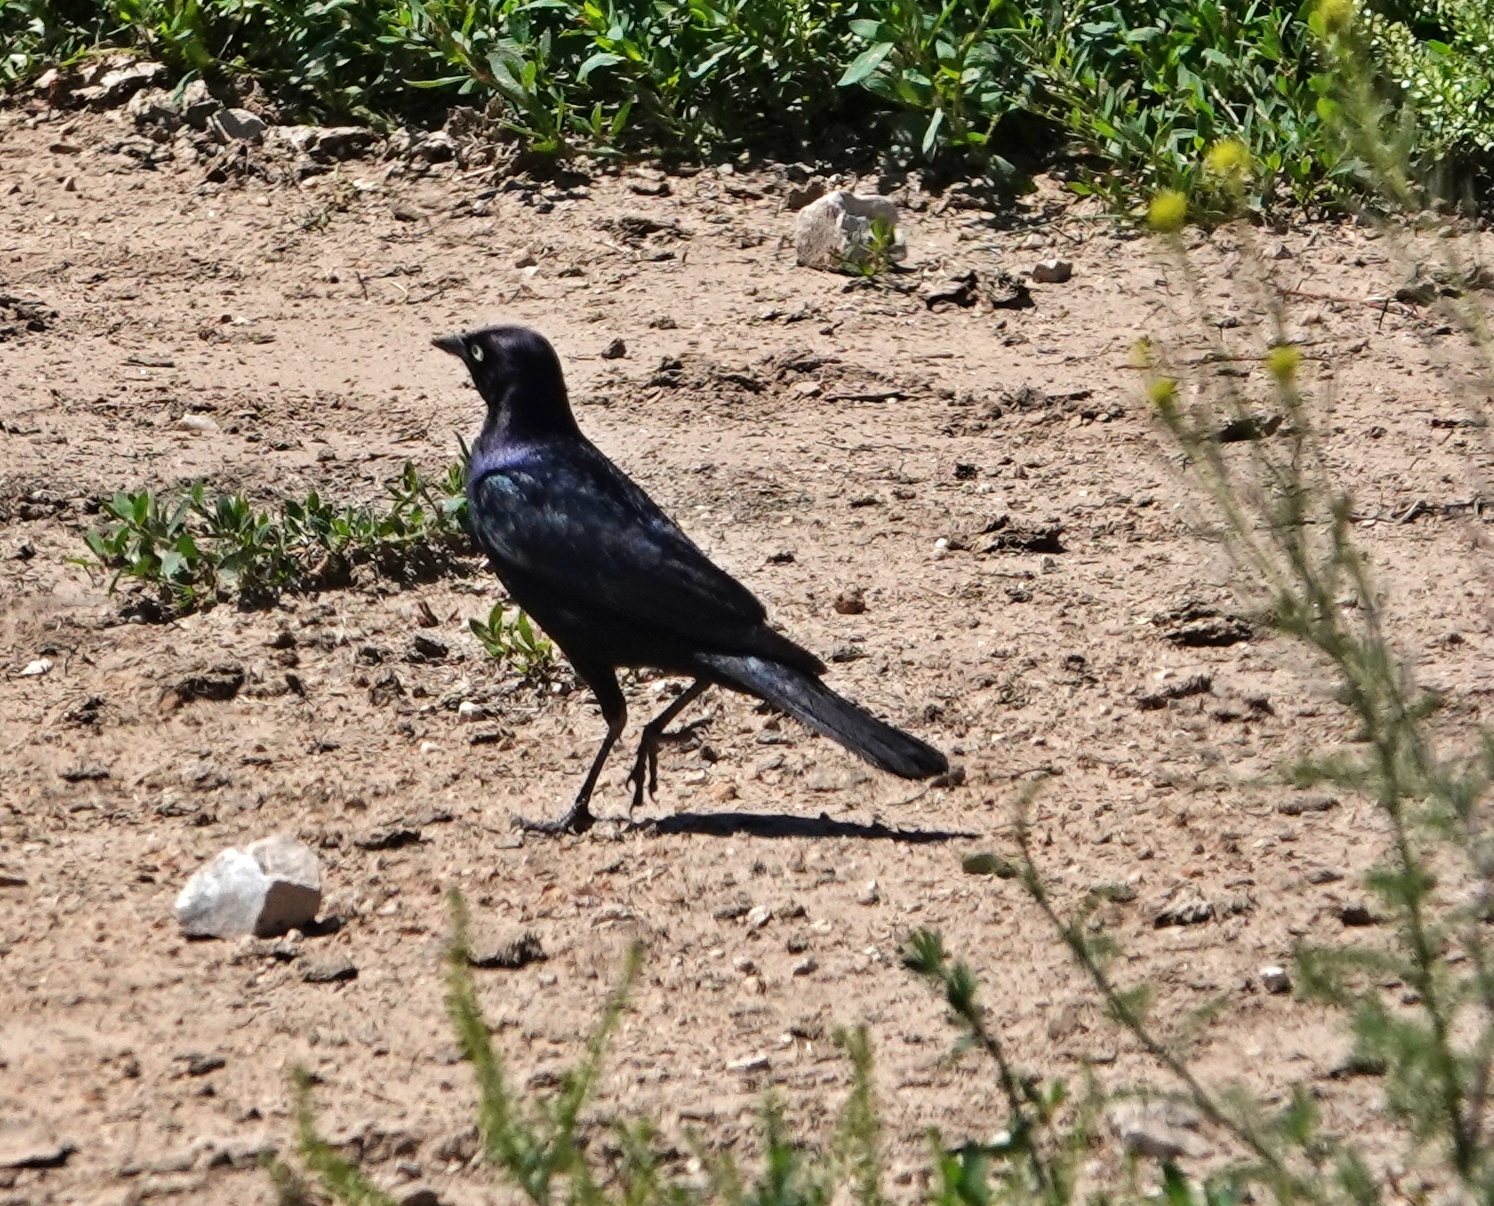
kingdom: Animalia
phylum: Chordata
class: Aves
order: Passeriformes
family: Icteridae
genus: Euphagus
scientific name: Euphagus cyanocephalus
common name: Brewer's blackbird
